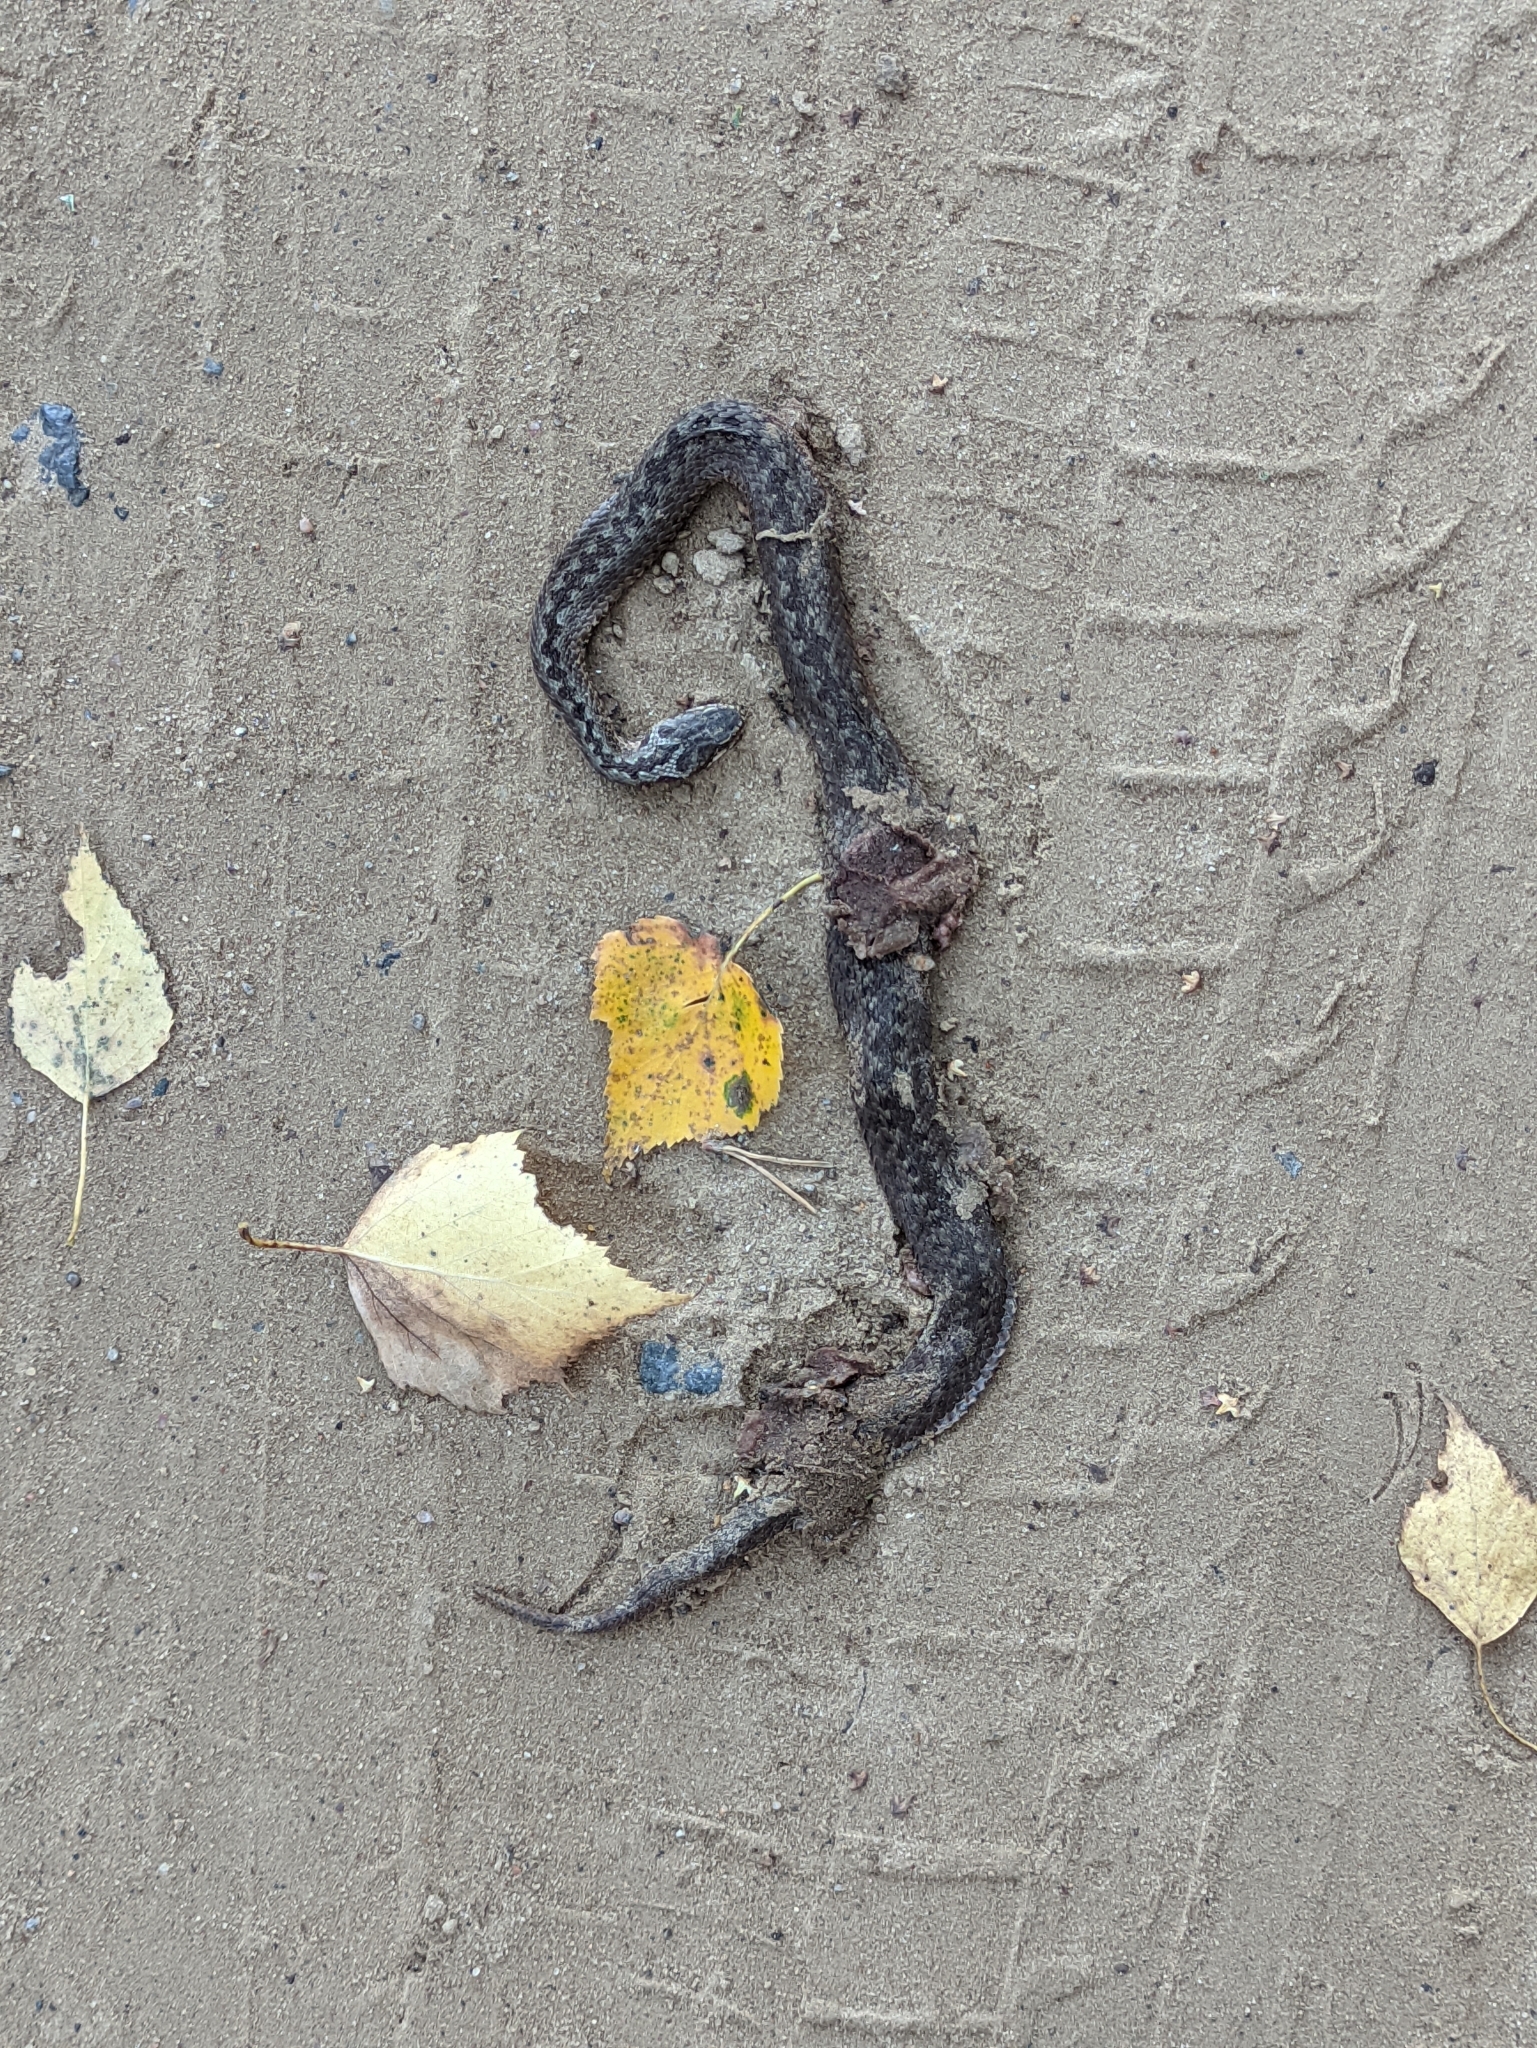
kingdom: Animalia
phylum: Chordata
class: Squamata
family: Viperidae
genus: Vipera
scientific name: Vipera berus
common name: Adder
